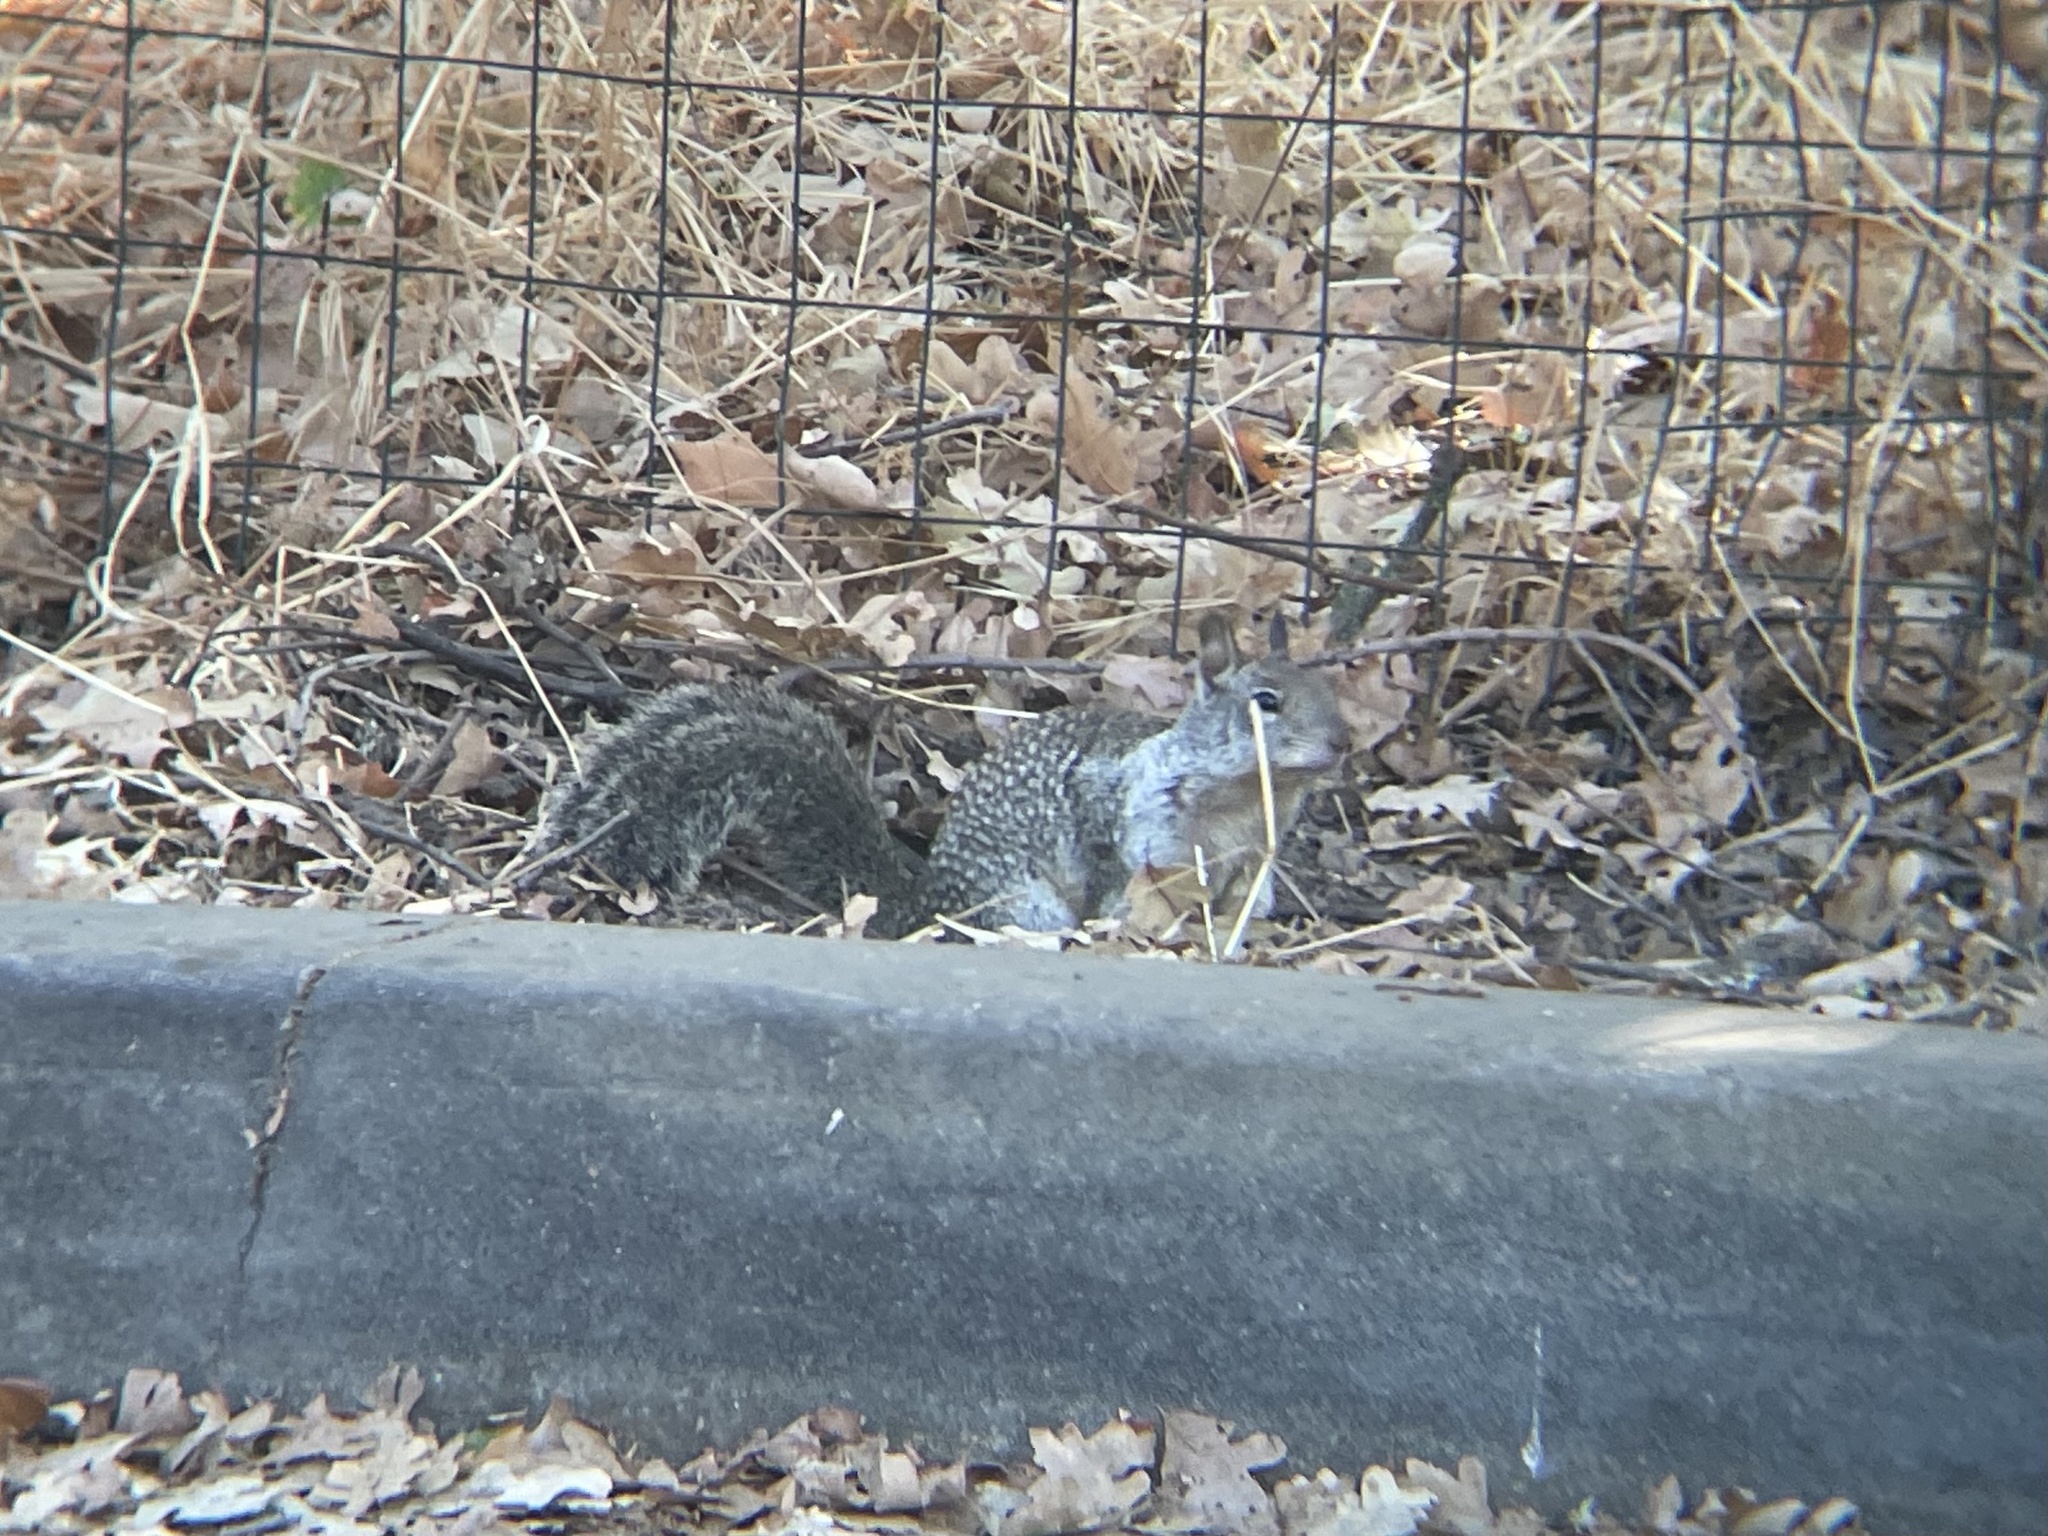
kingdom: Animalia
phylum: Chordata
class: Mammalia
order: Rodentia
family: Sciuridae
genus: Otospermophilus
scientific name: Otospermophilus beecheyi
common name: California ground squirrel
